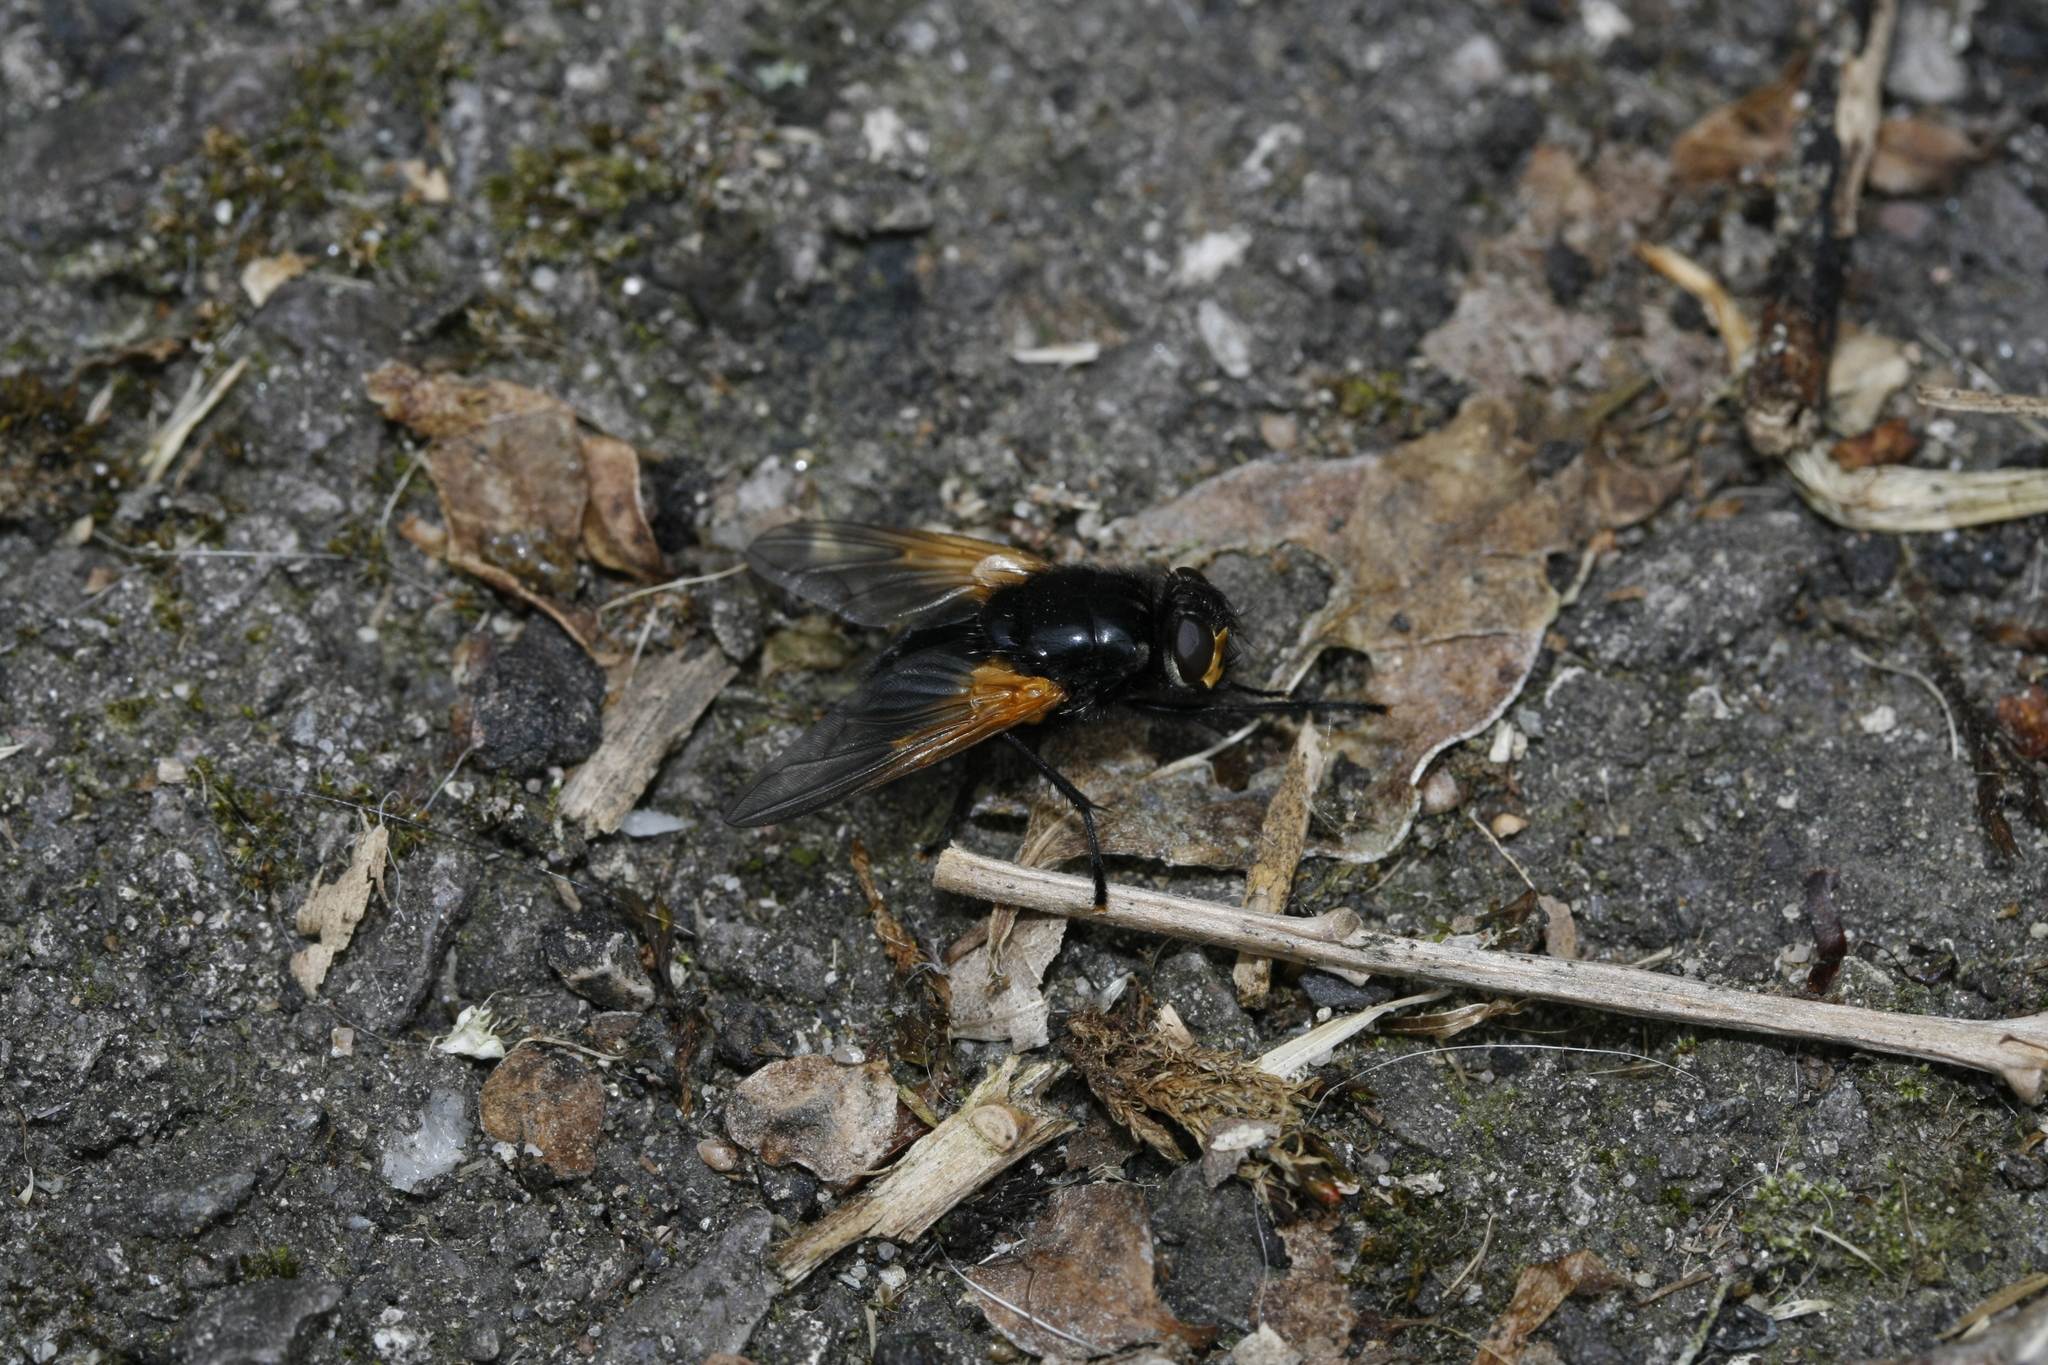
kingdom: Animalia
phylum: Arthropoda
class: Insecta
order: Diptera
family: Muscidae
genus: Mesembrina
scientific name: Mesembrina meridiana
